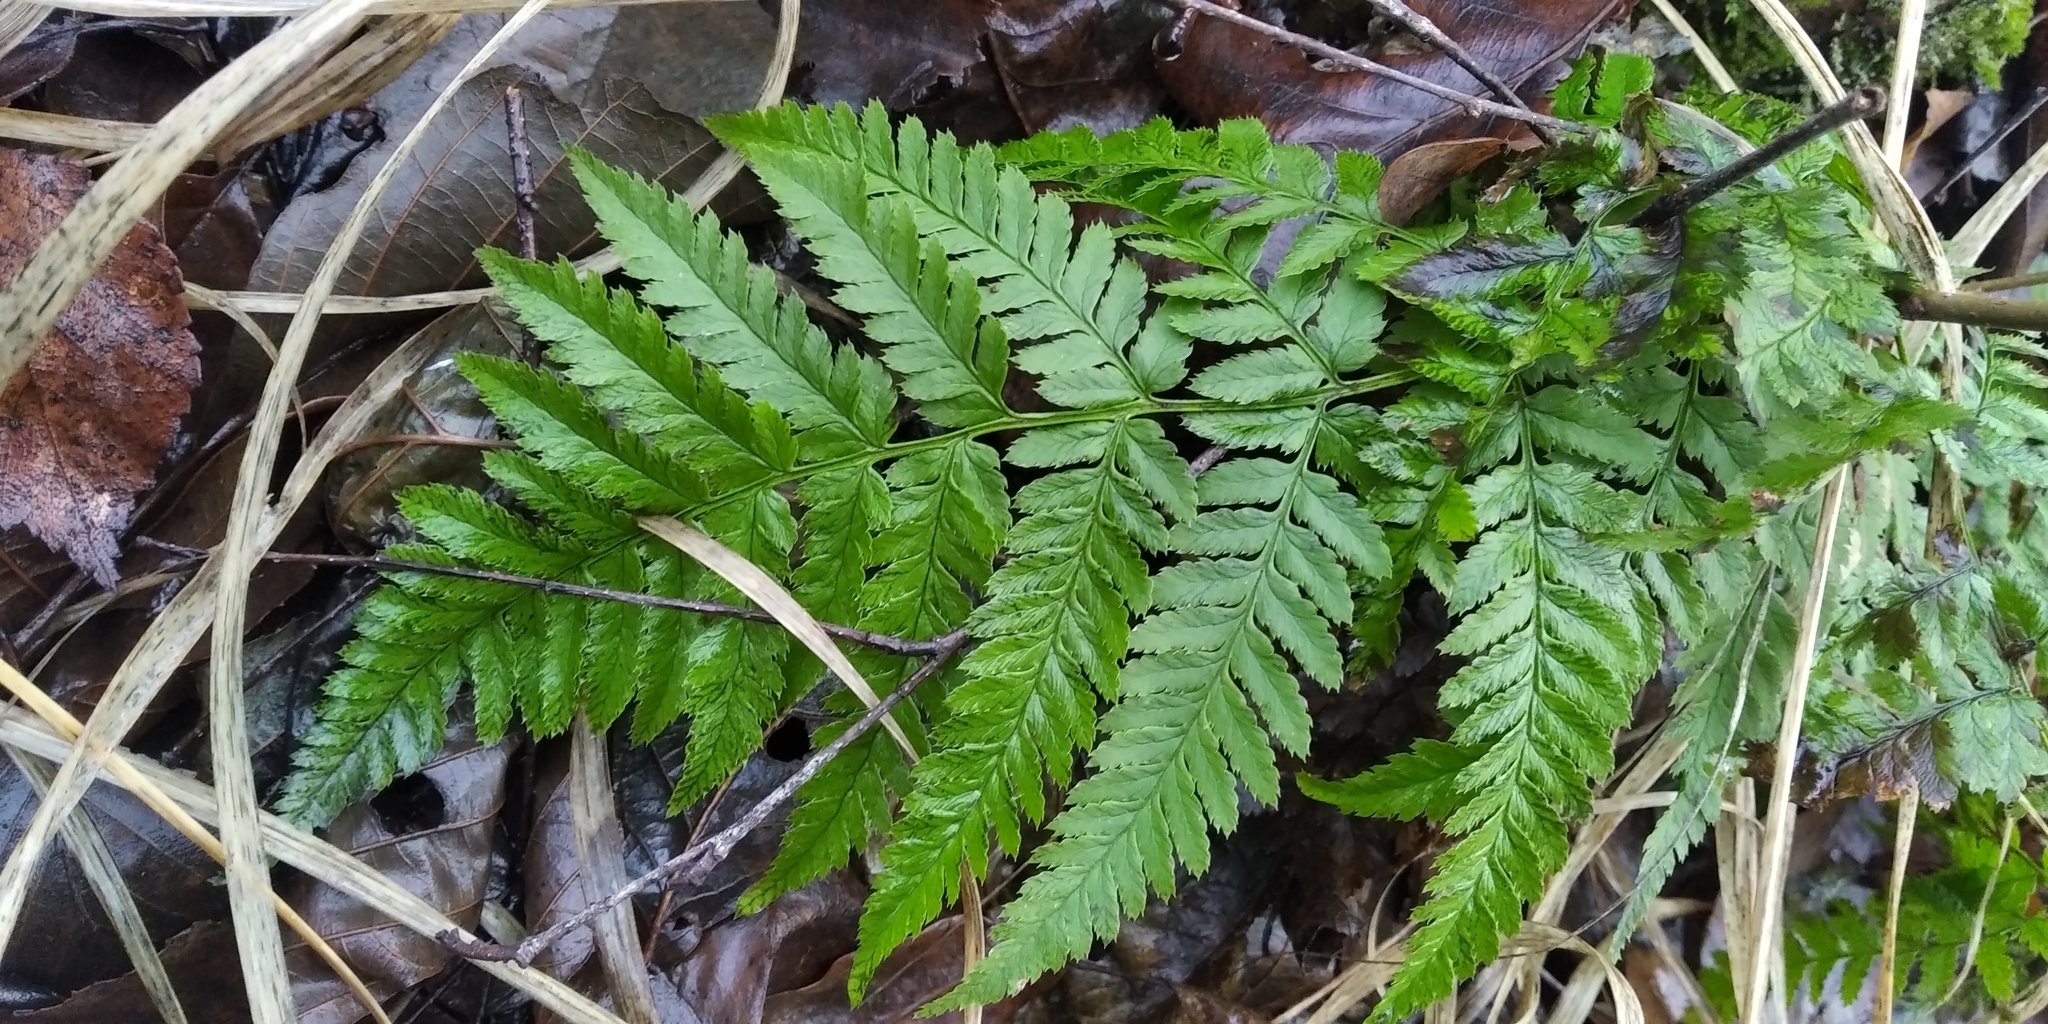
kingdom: Plantae
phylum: Tracheophyta
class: Polypodiopsida
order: Polypodiales
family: Dryopteridaceae
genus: Dryopteris
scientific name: Dryopteris carthusiana
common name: Narrow buckler-fern
